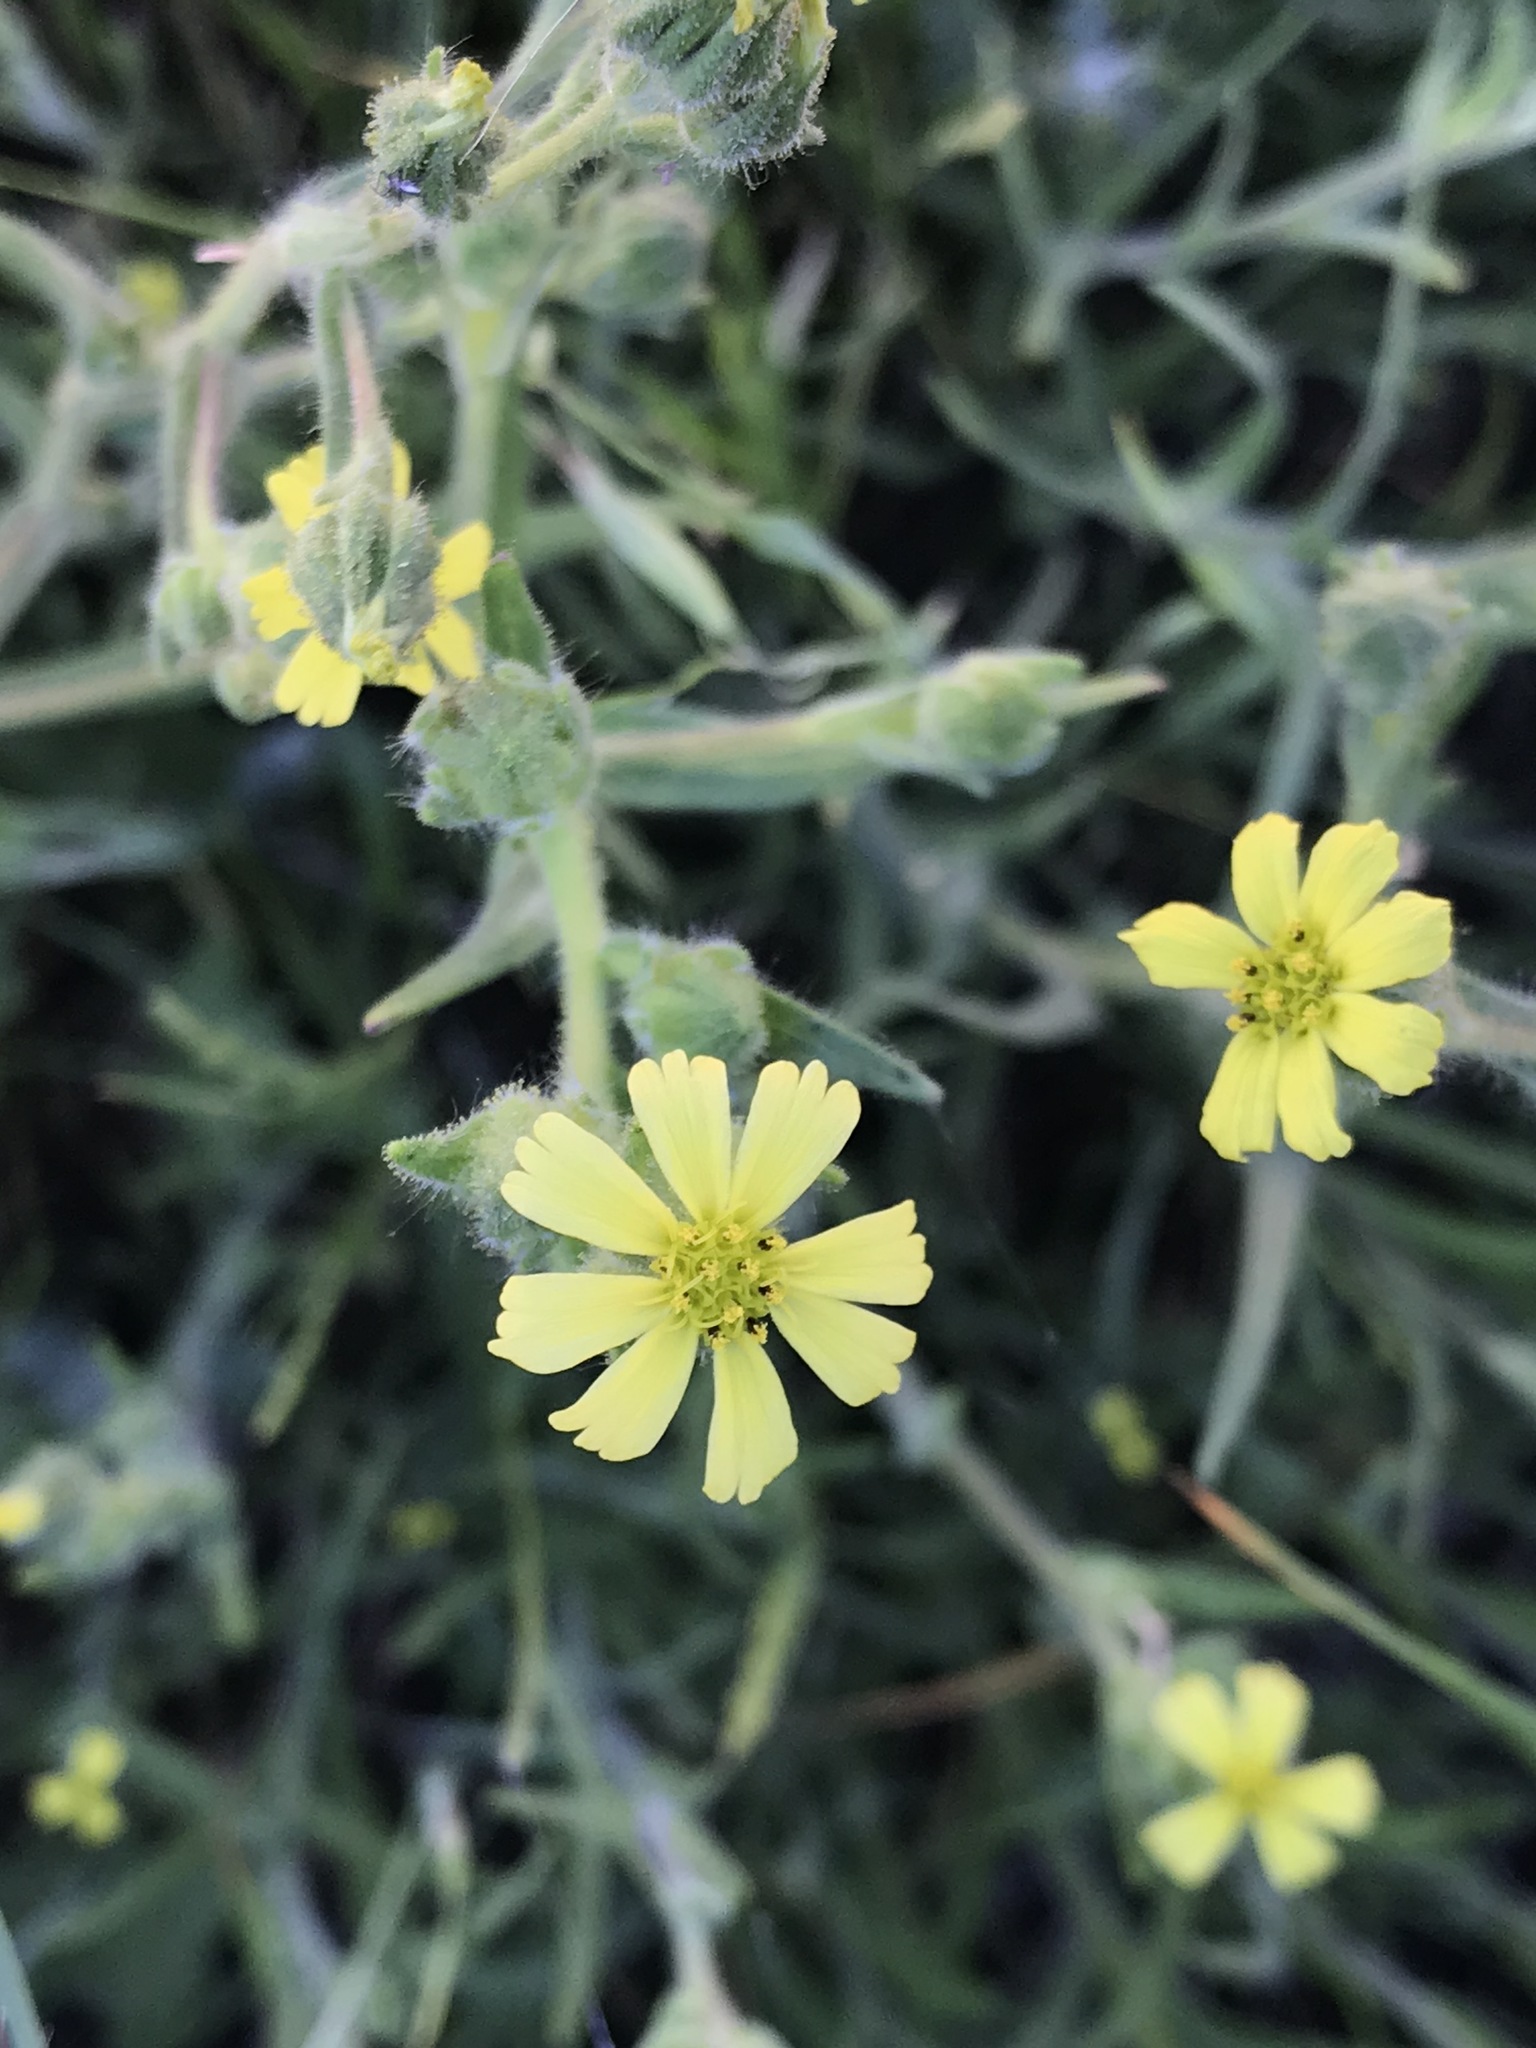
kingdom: Plantae
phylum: Tracheophyta
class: Magnoliopsida
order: Asterales
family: Asteraceae
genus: Madia
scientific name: Madia gracilis
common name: Grassy tarweed
